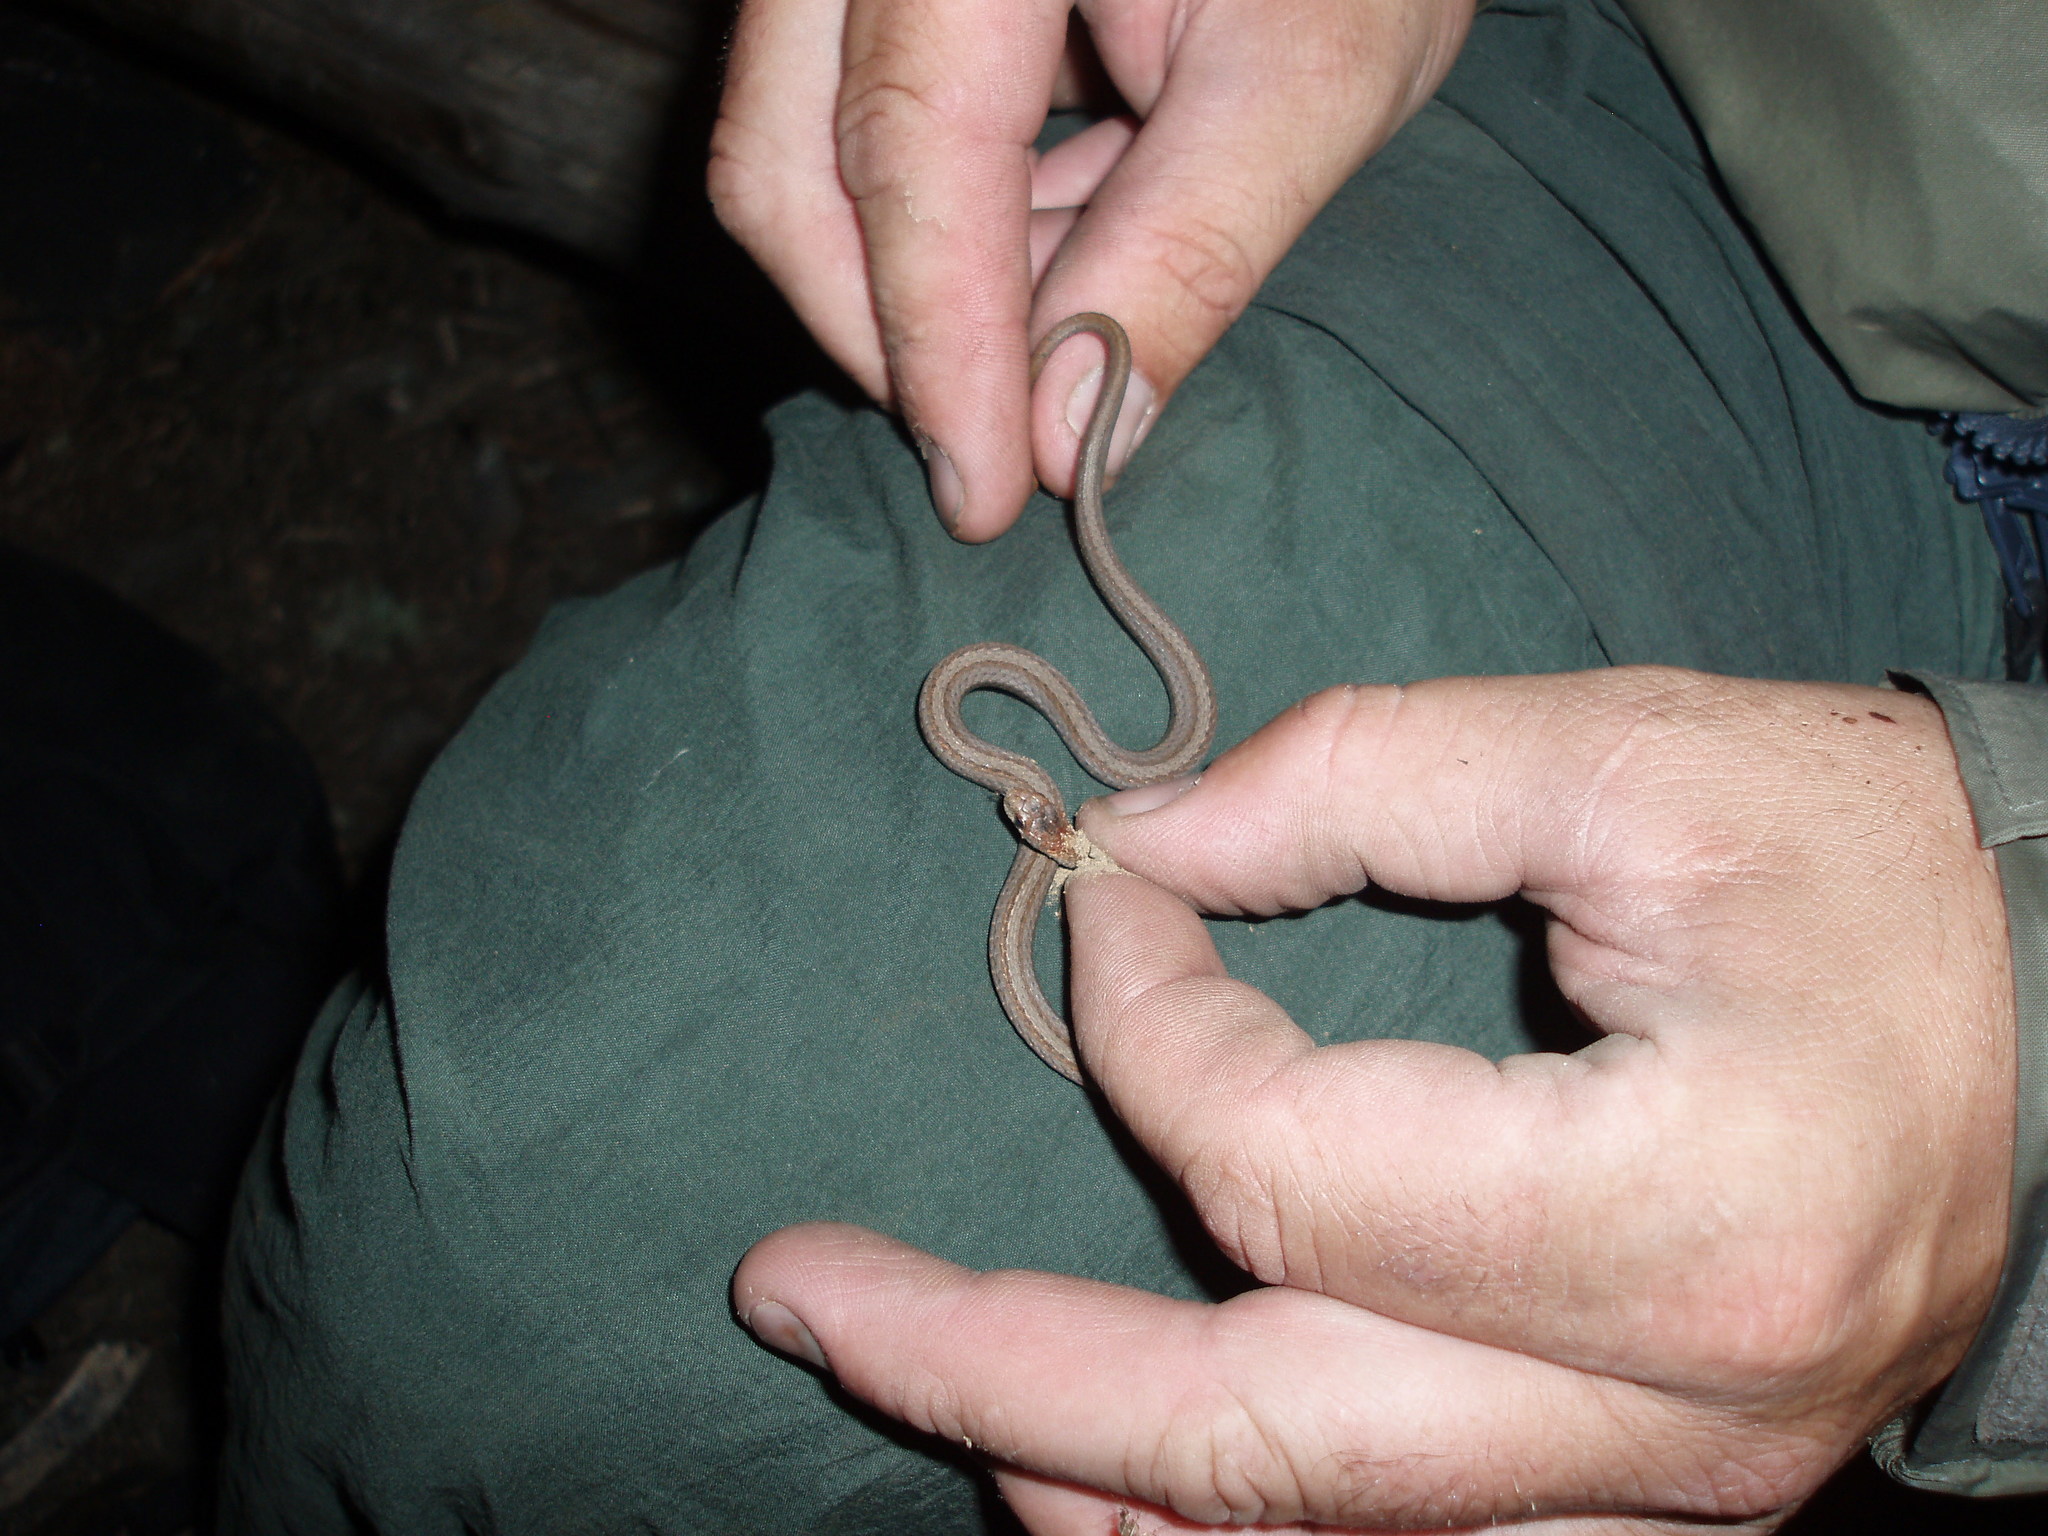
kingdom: Animalia
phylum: Chordata
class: Squamata
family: Colubridae
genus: Storeria
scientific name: Storeria occipitomaculata
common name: Redbelly snake
